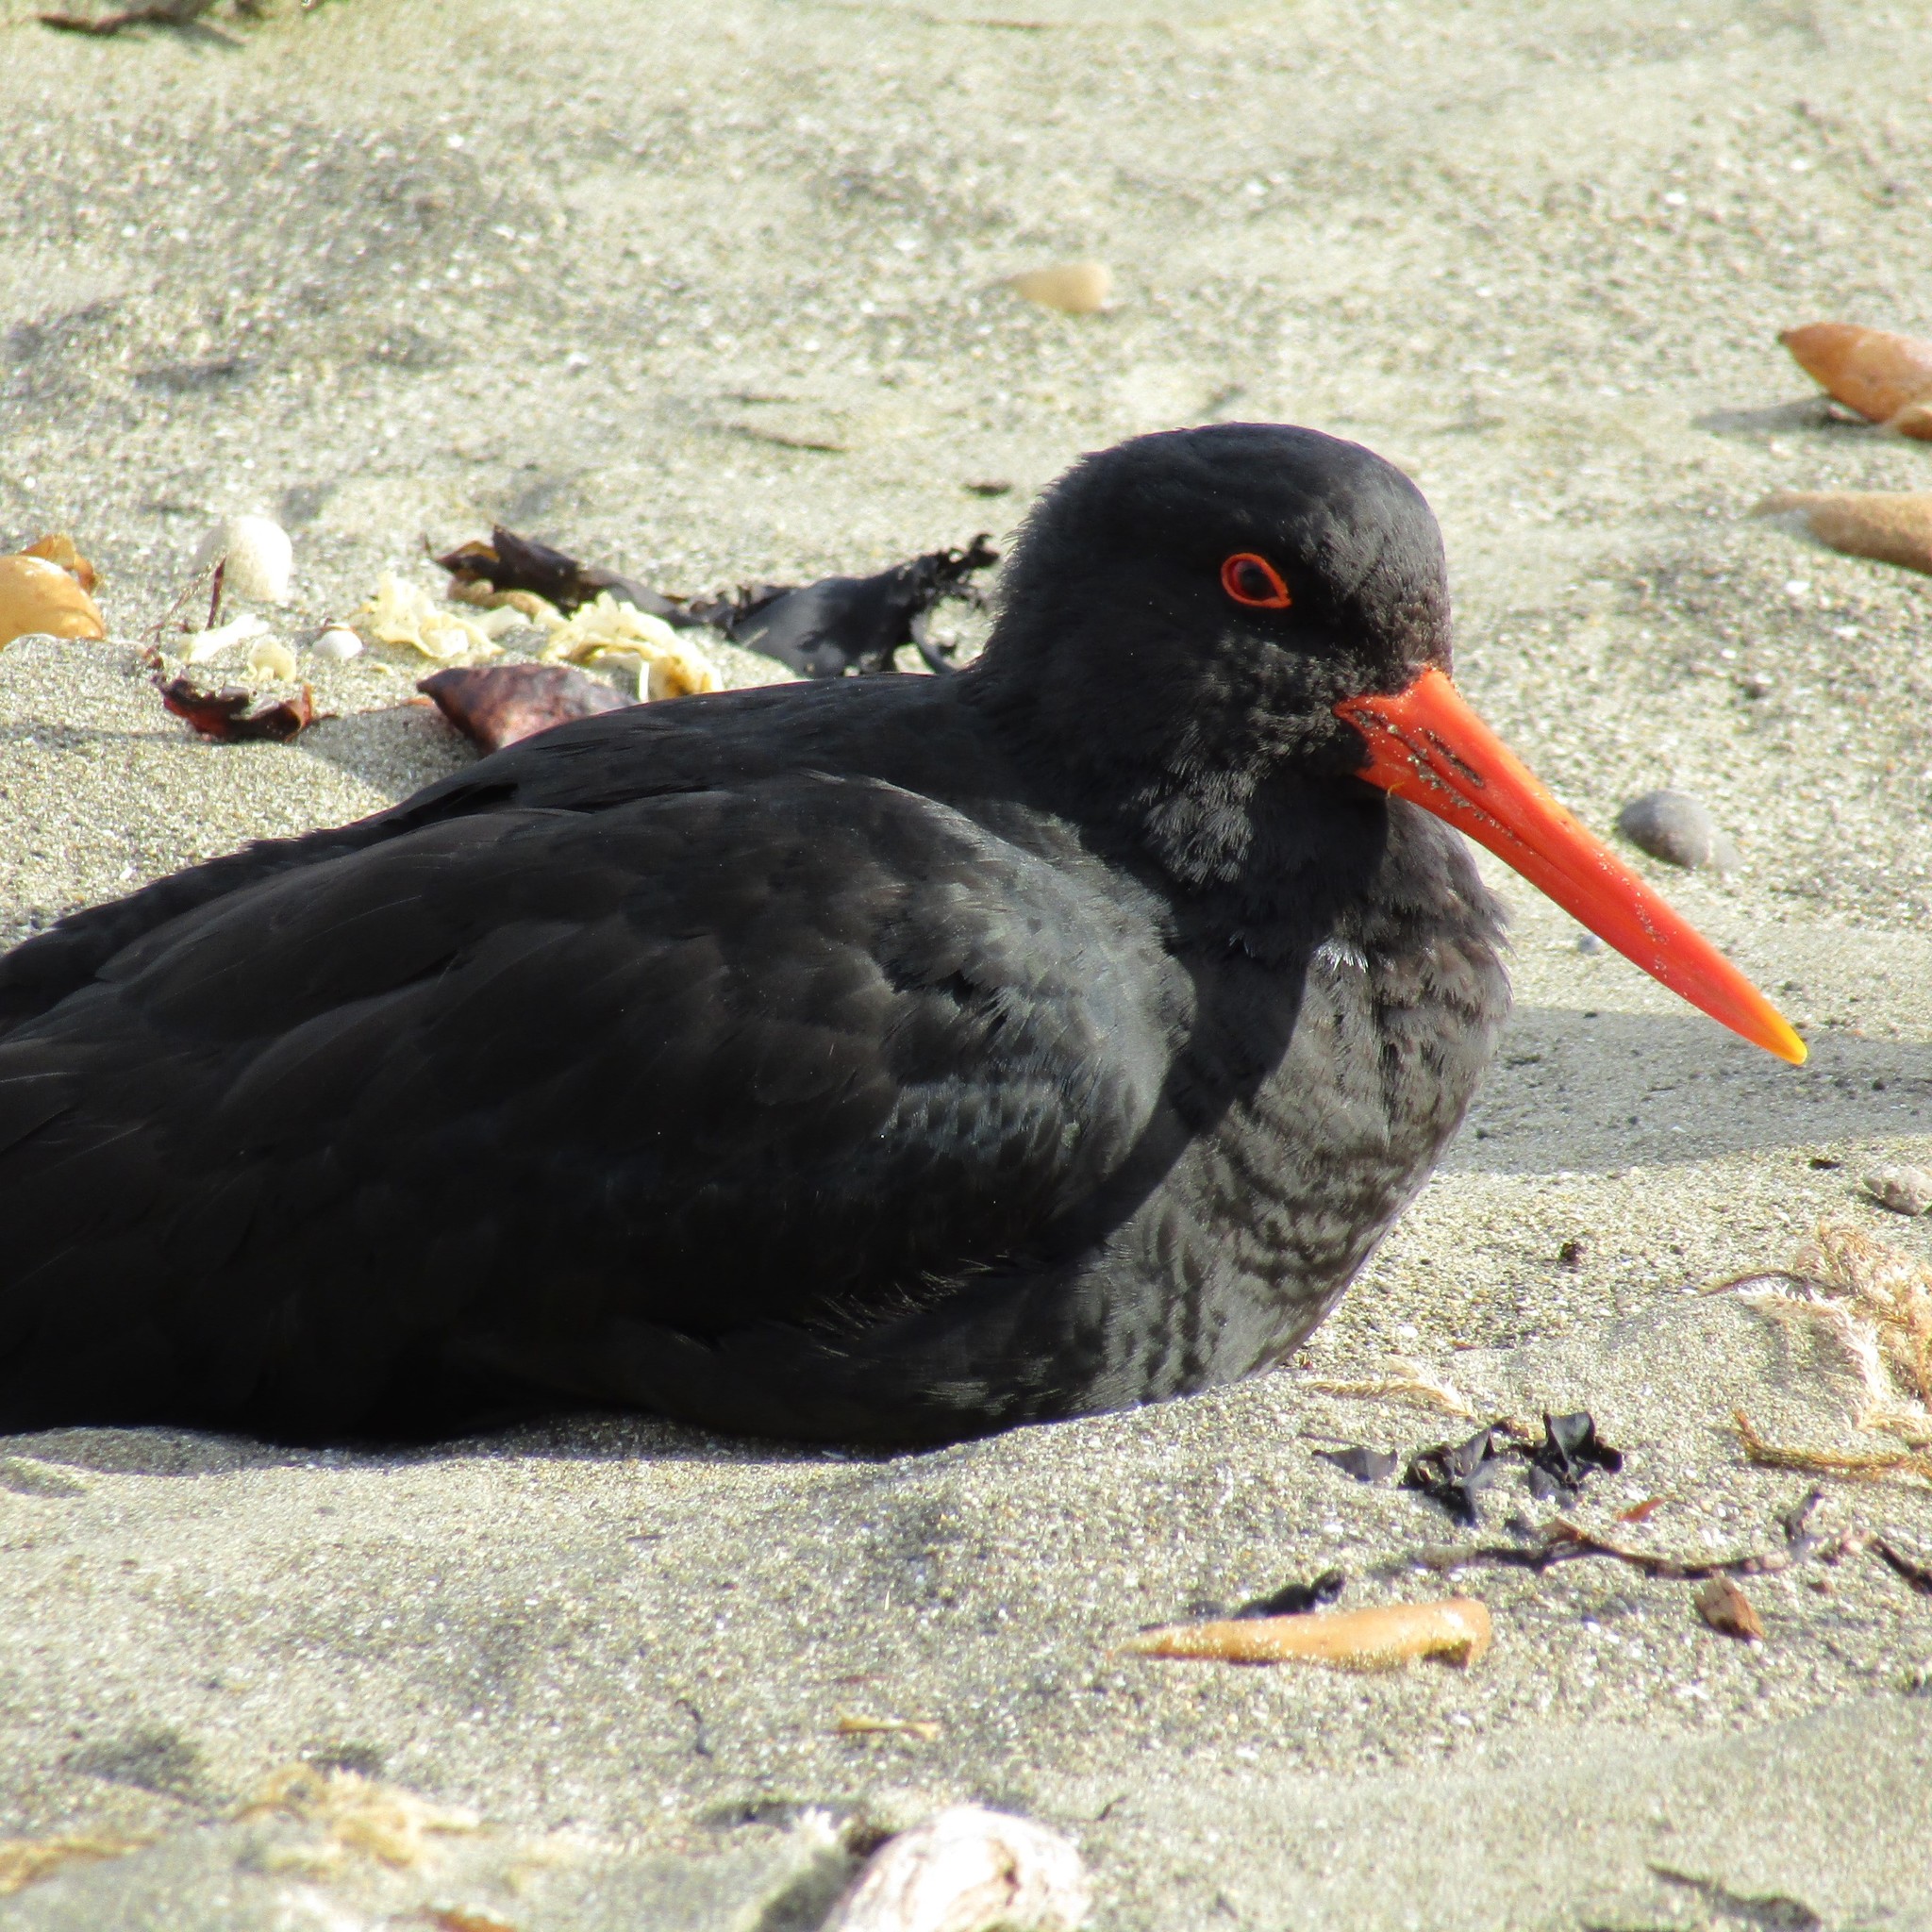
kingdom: Animalia
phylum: Chordata
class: Aves
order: Charadriiformes
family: Haematopodidae
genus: Haematopus
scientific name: Haematopus unicolor
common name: Variable oystercatcher
